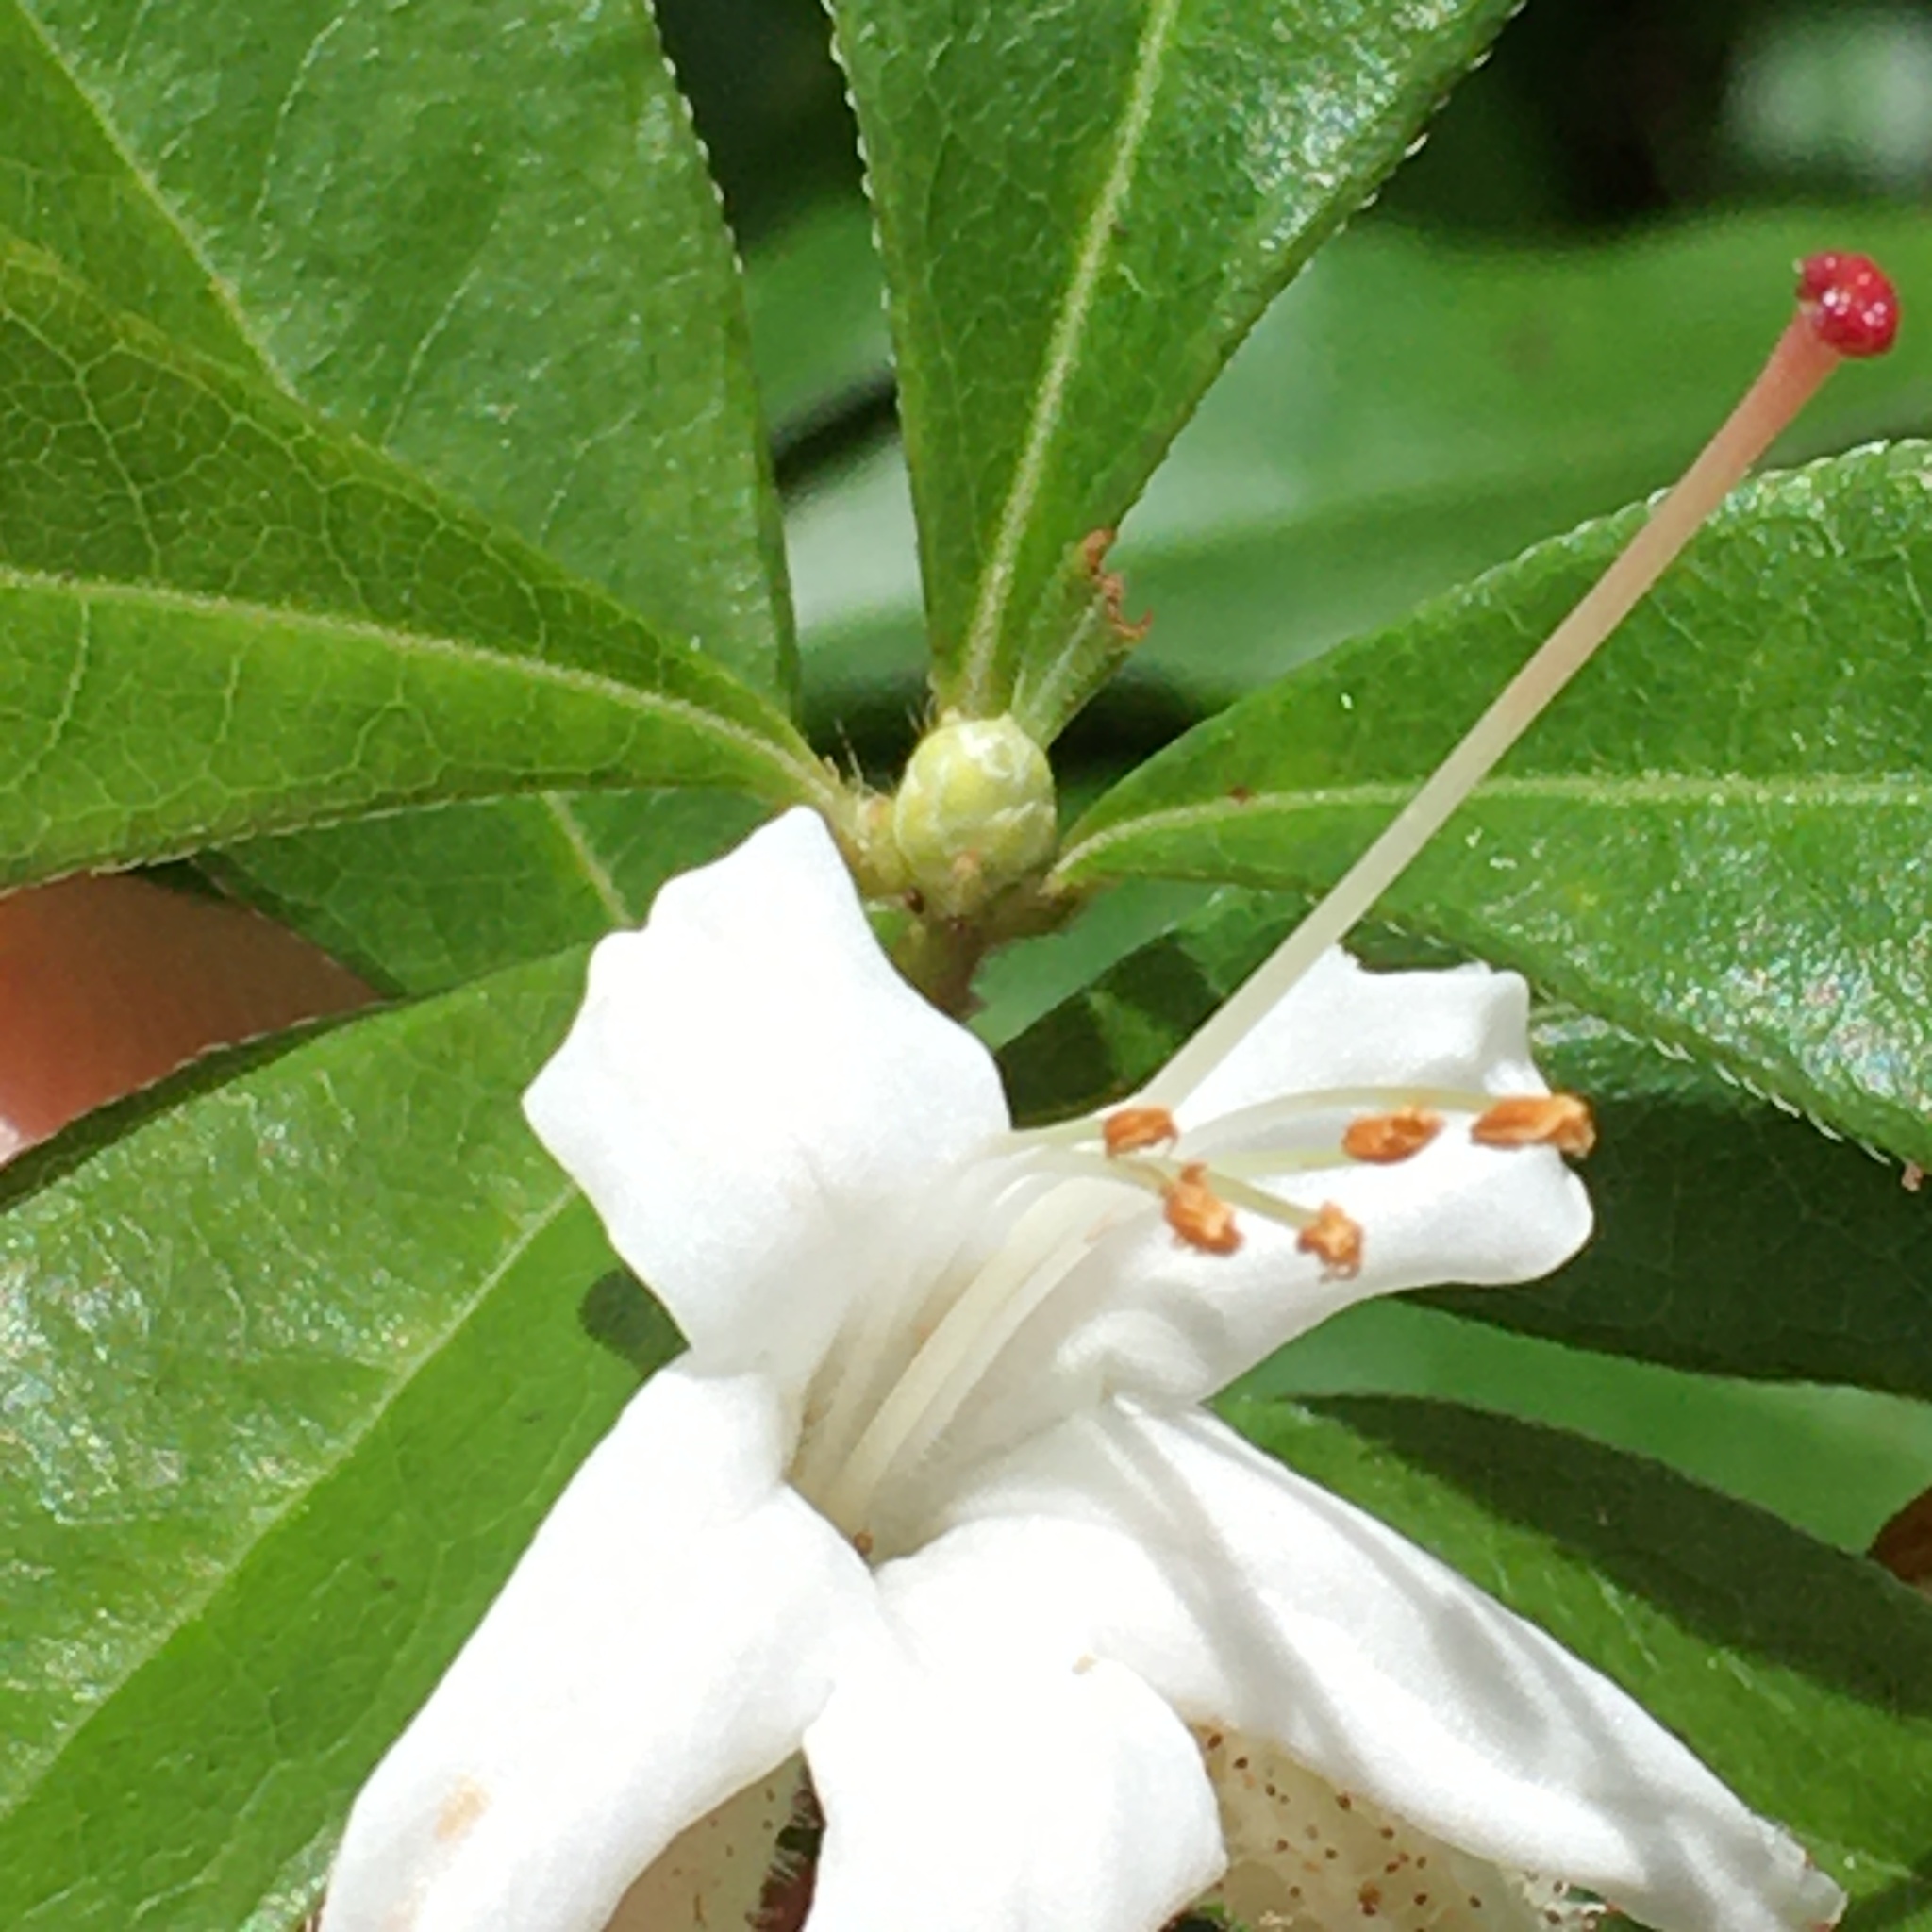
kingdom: Plantae
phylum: Tracheophyta
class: Magnoliopsida
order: Ericales
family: Ericaceae
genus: Rhododendron
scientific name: Rhododendron viscosum
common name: Clammy azalea
